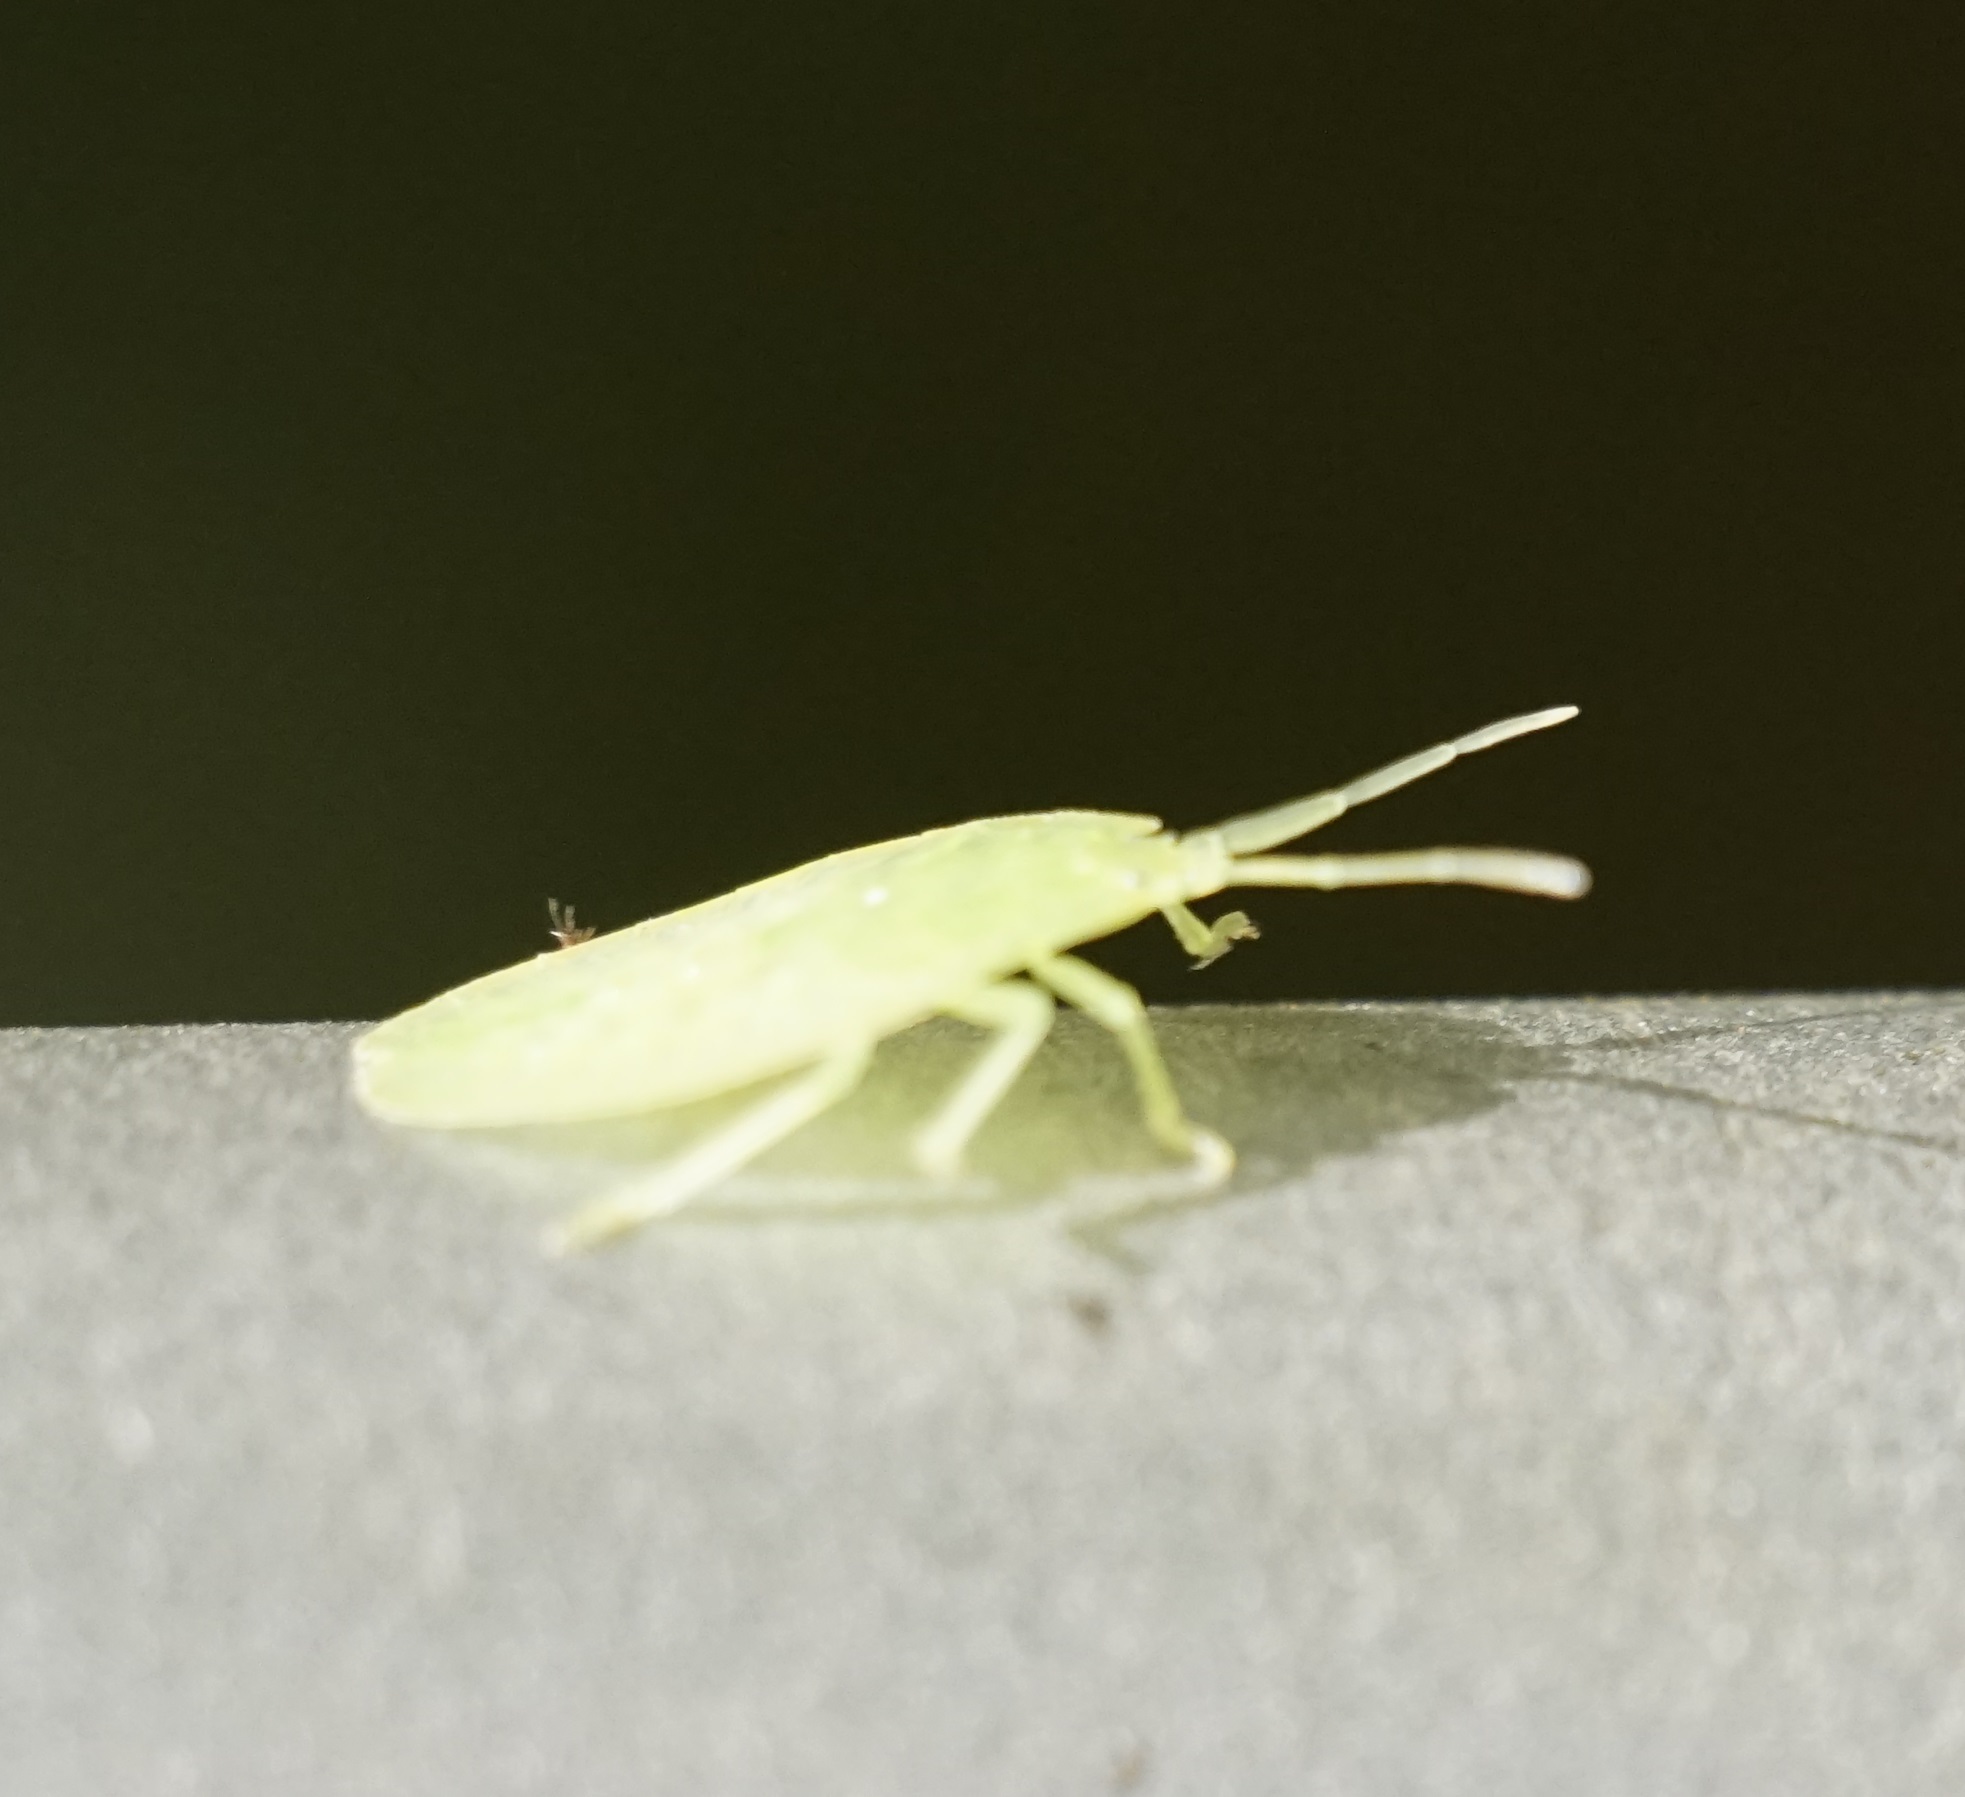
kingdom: Animalia
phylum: Arthropoda
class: Insecta
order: Hemiptera
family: Tessaratomidae
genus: Musgraveia
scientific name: Musgraveia sulciventris
